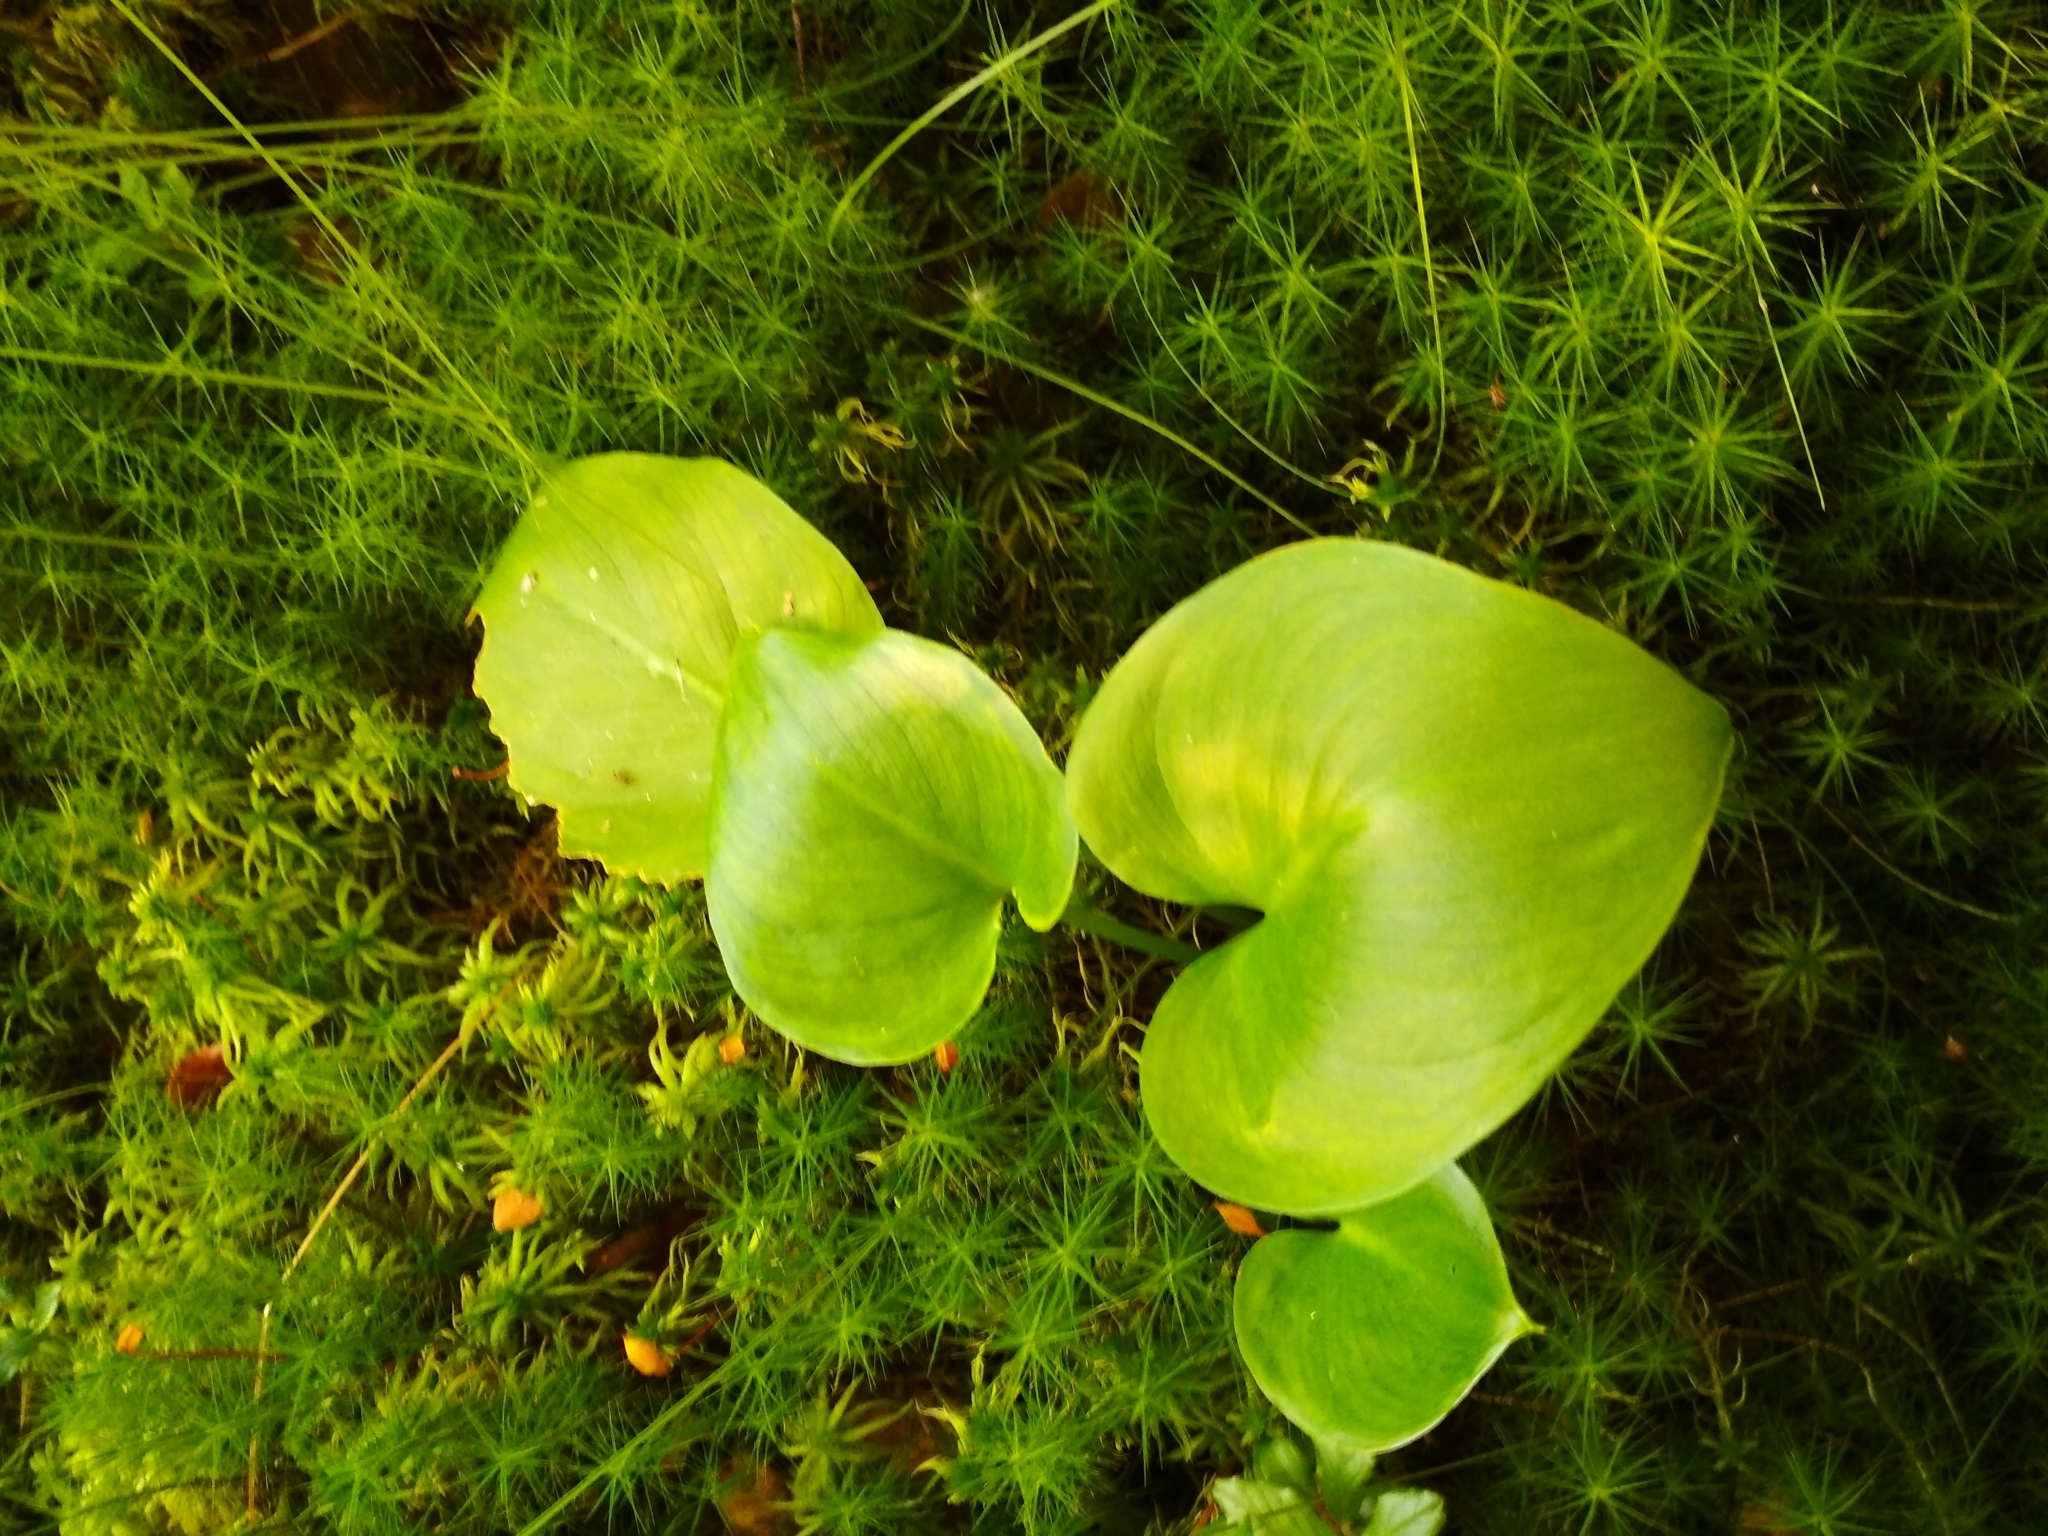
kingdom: Plantae
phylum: Tracheophyta
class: Liliopsida
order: Alismatales
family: Araceae
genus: Calla
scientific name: Calla palustris
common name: Bog arum
